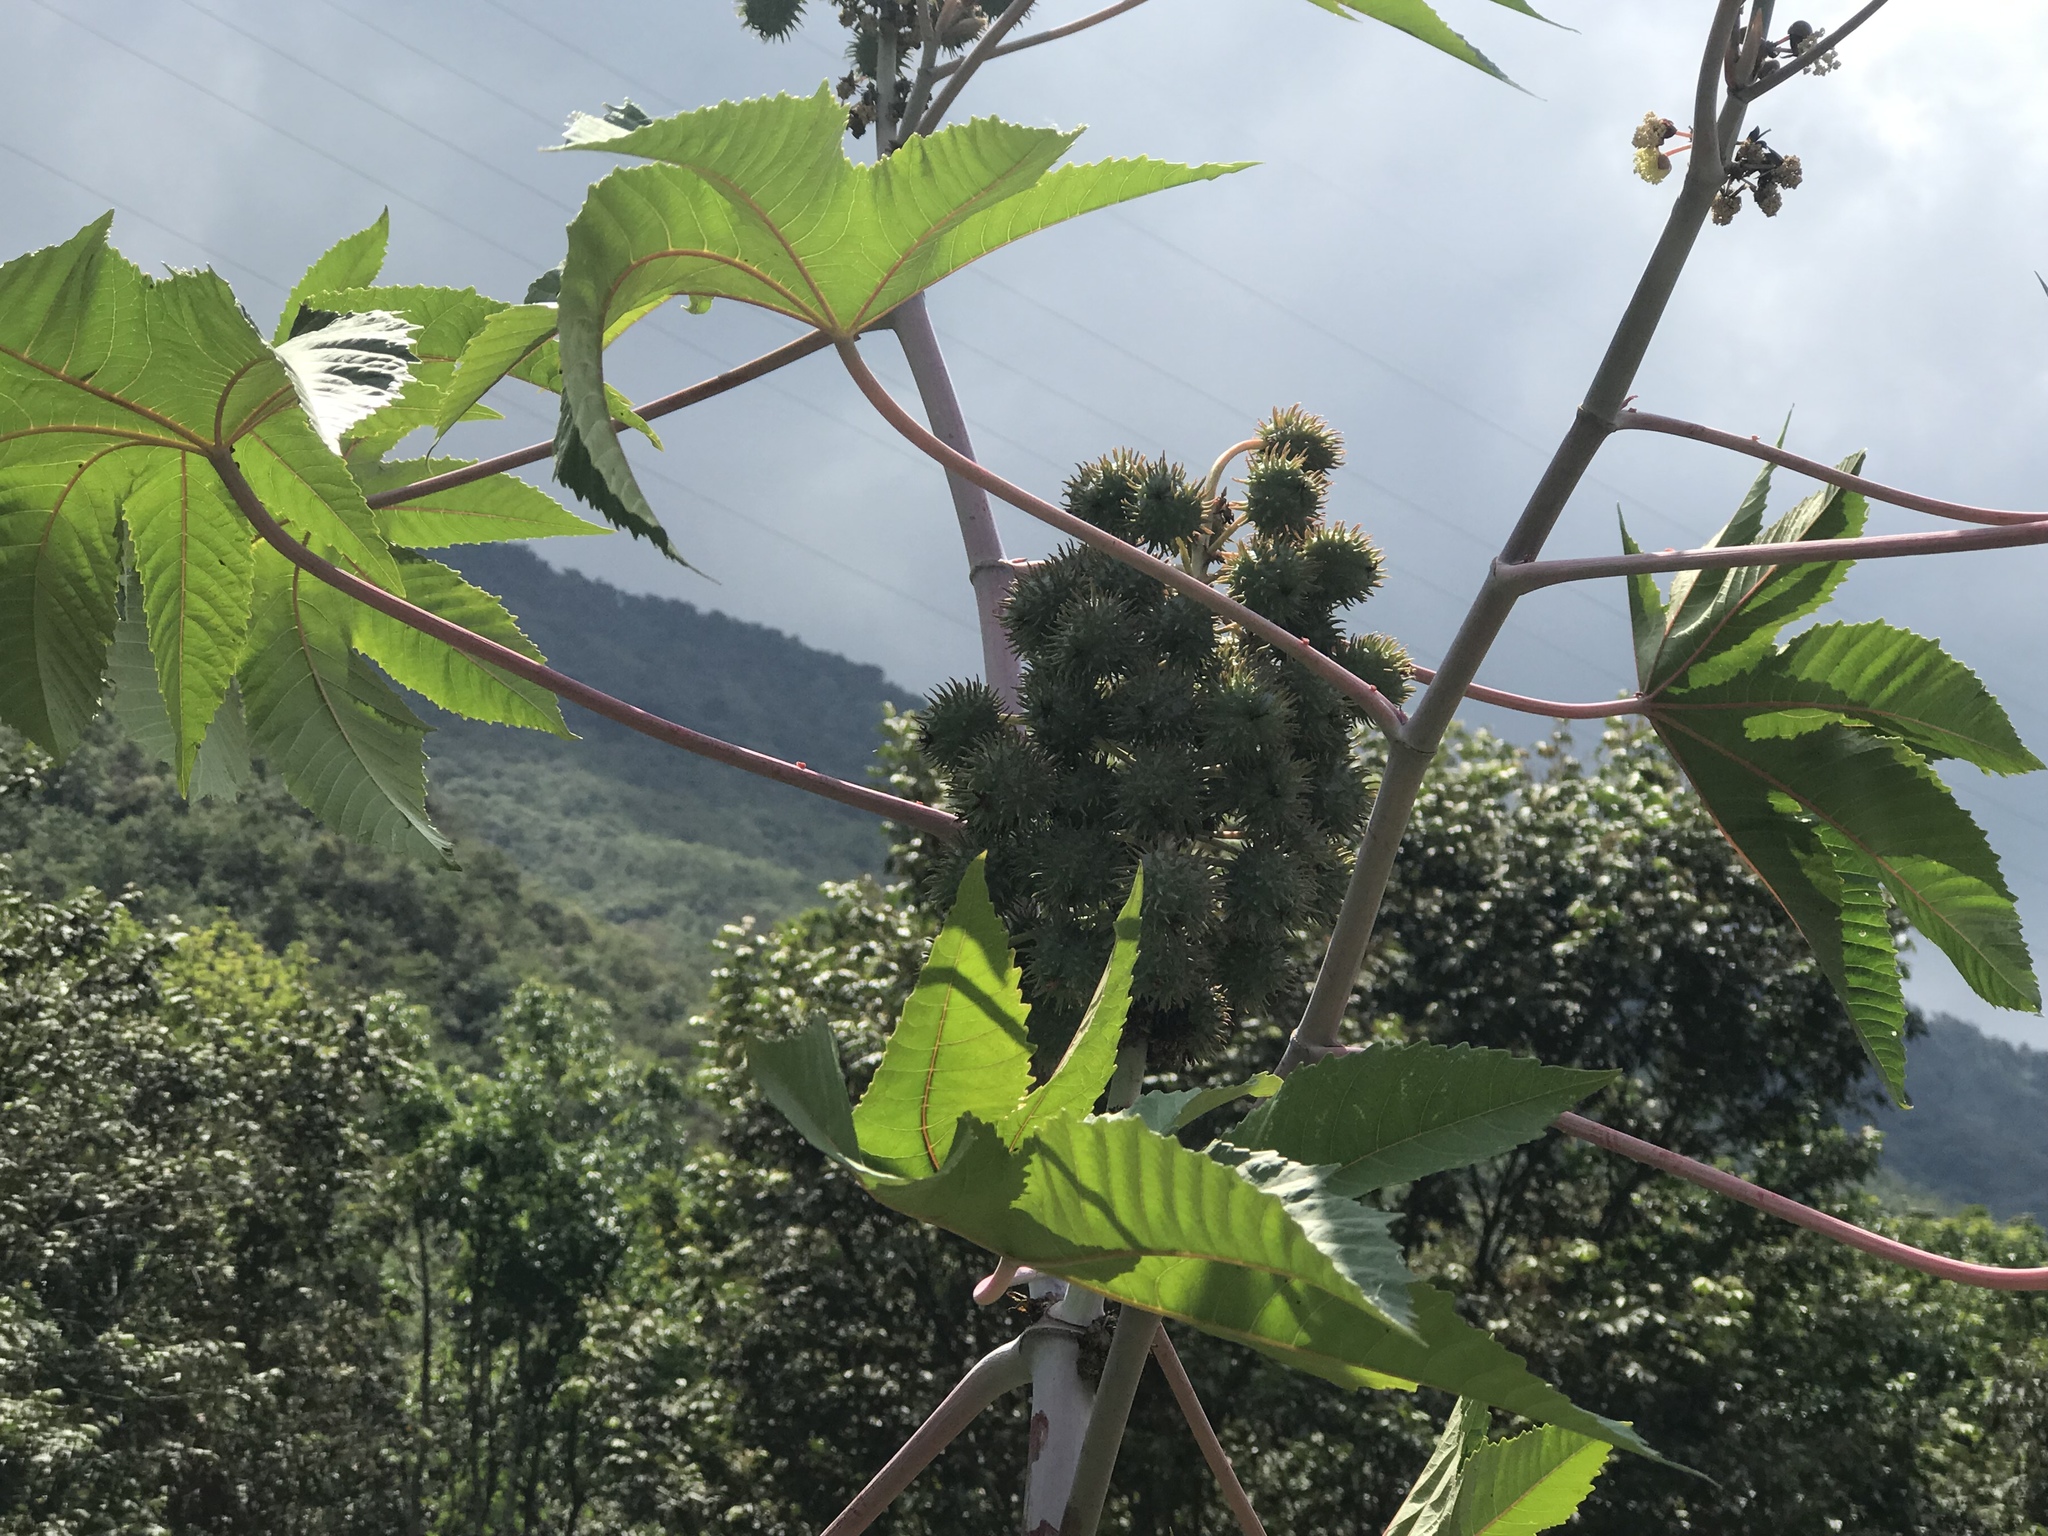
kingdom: Plantae
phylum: Tracheophyta
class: Magnoliopsida
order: Malpighiales
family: Euphorbiaceae
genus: Ricinus
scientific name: Ricinus communis
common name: Castor-oil-plant
